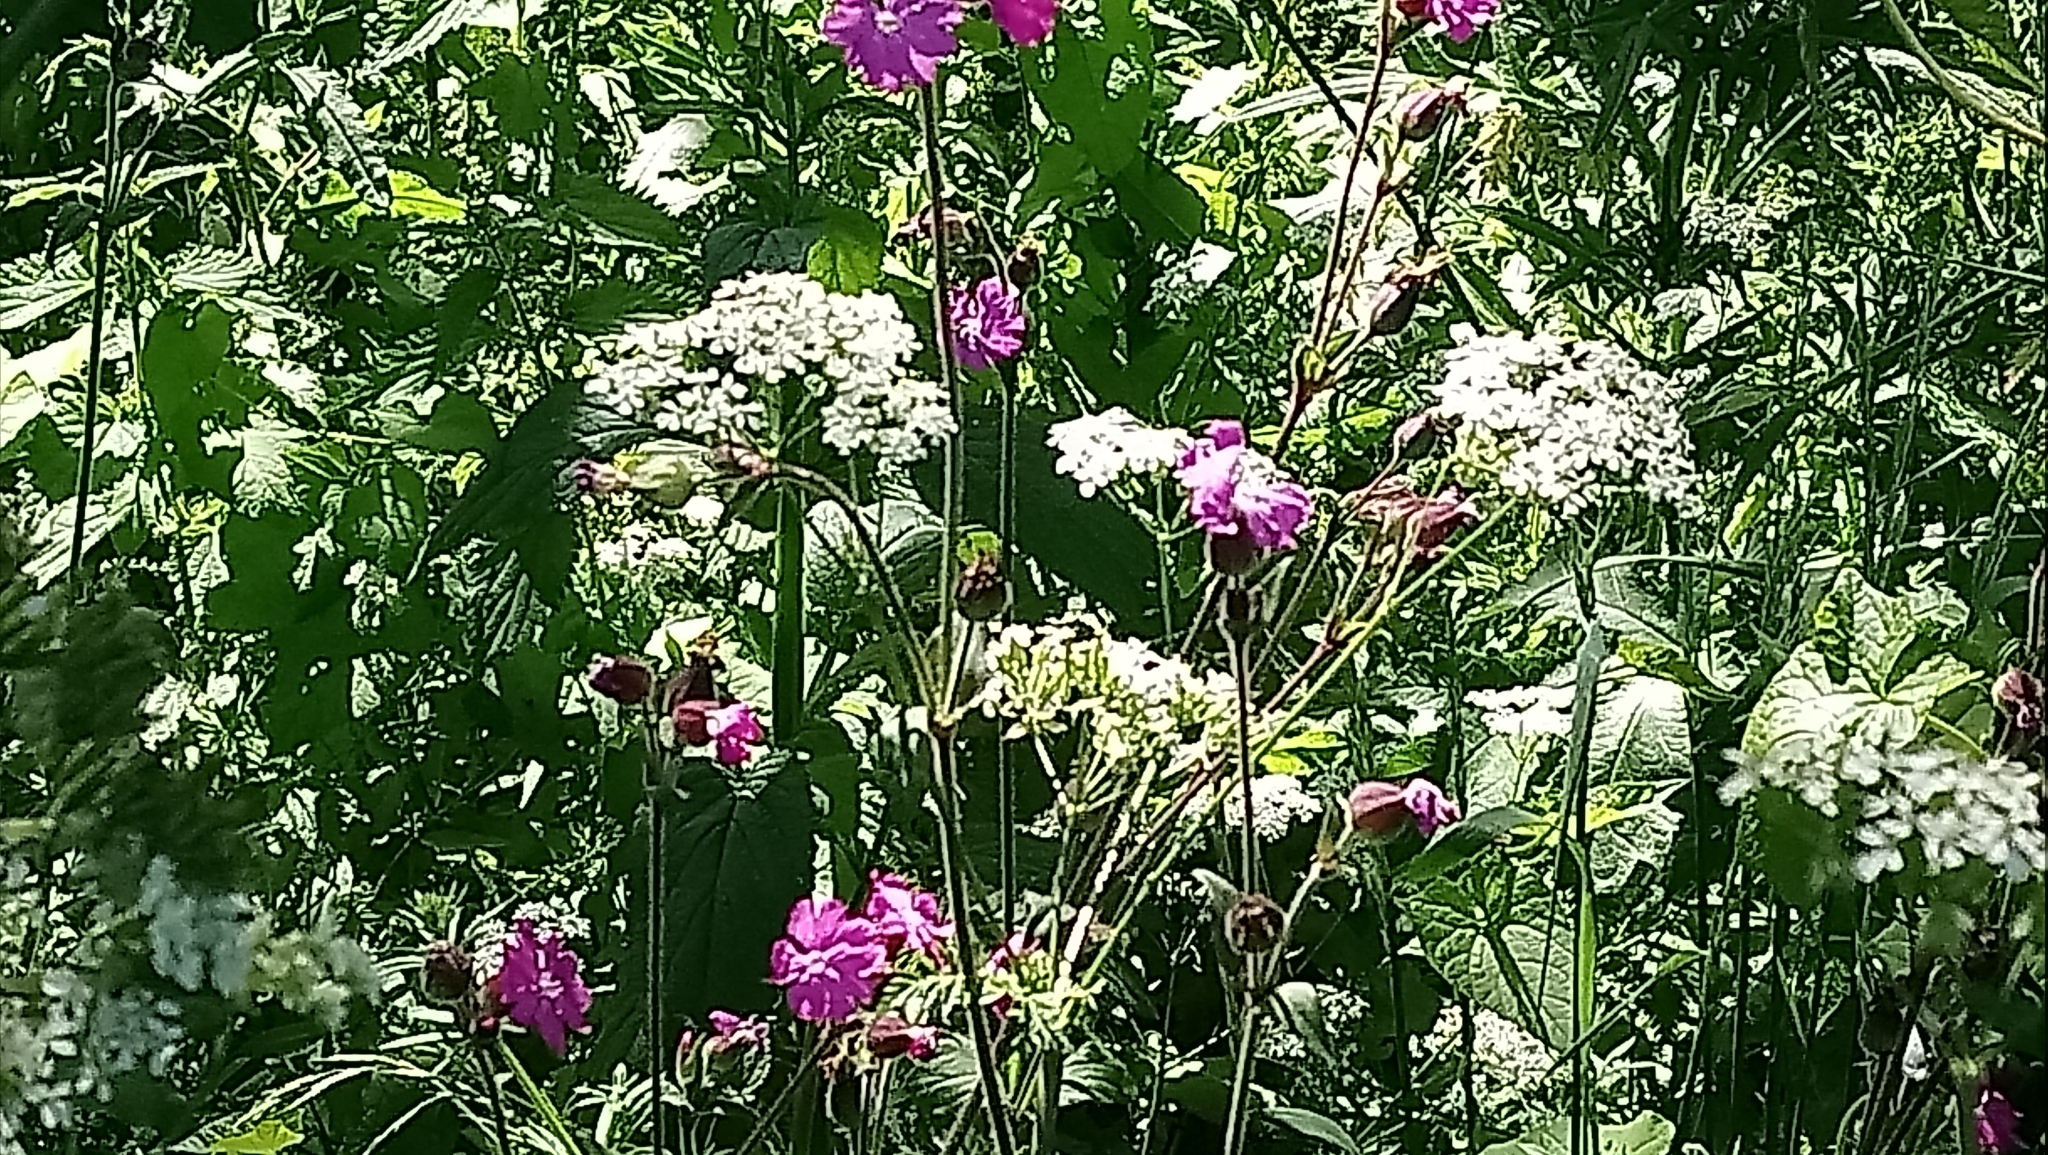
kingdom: Plantae
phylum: Tracheophyta
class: Magnoliopsida
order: Caryophyllales
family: Caryophyllaceae
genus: Silene
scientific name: Silene dioica
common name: Red campion
